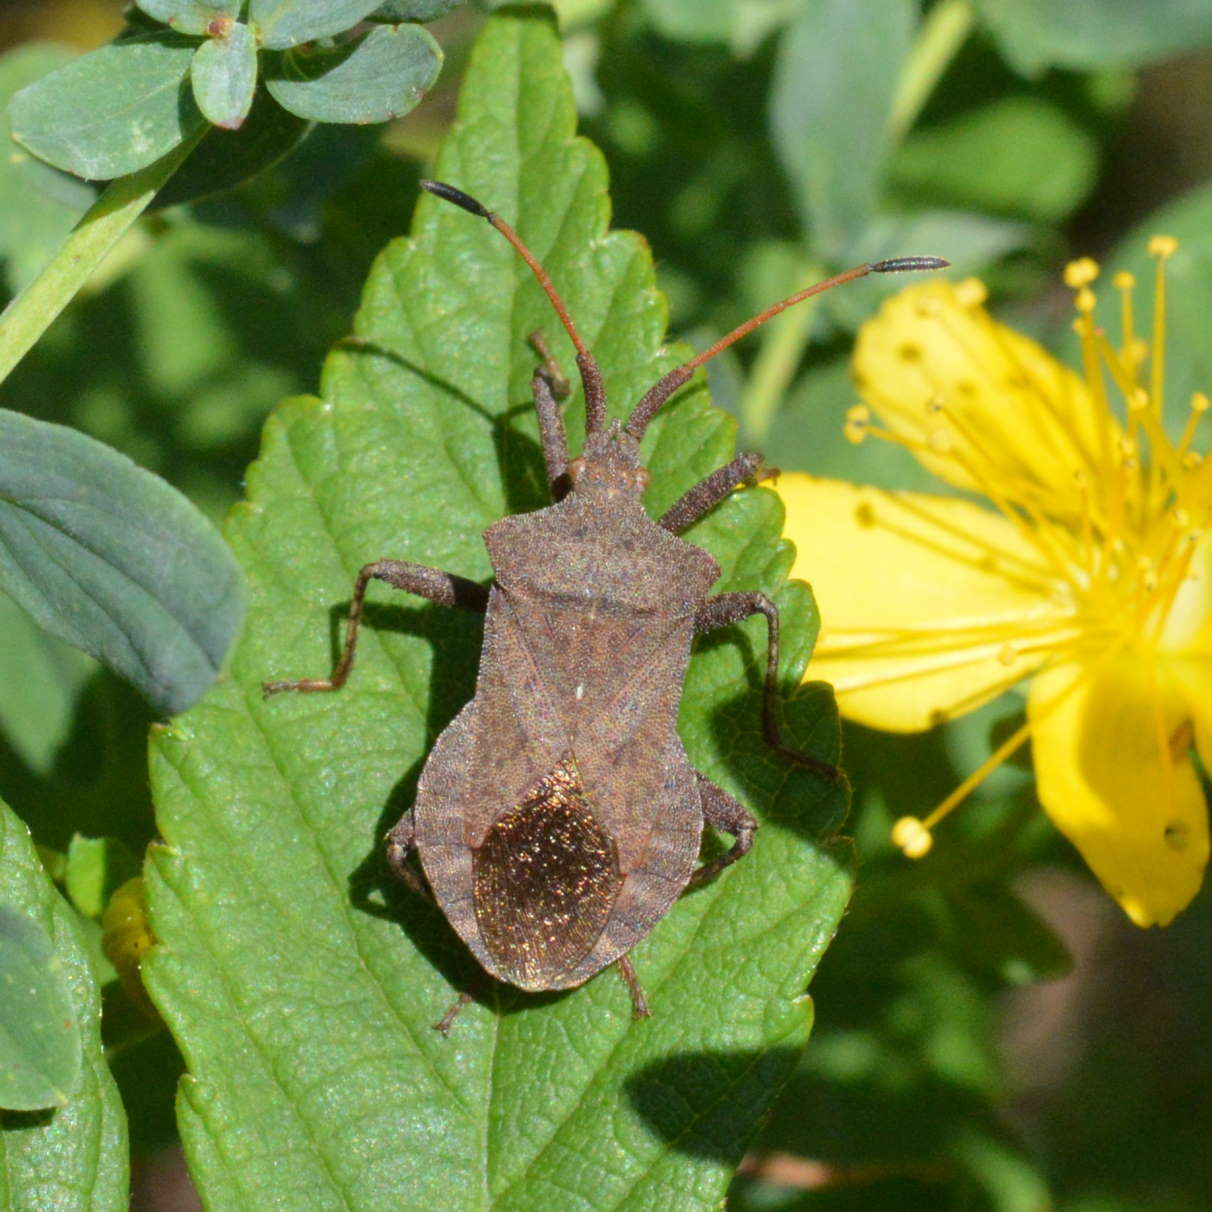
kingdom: Animalia
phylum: Arthropoda
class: Insecta
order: Hemiptera
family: Coreidae
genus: Coreus
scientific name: Coreus marginatus
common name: Dock bug
